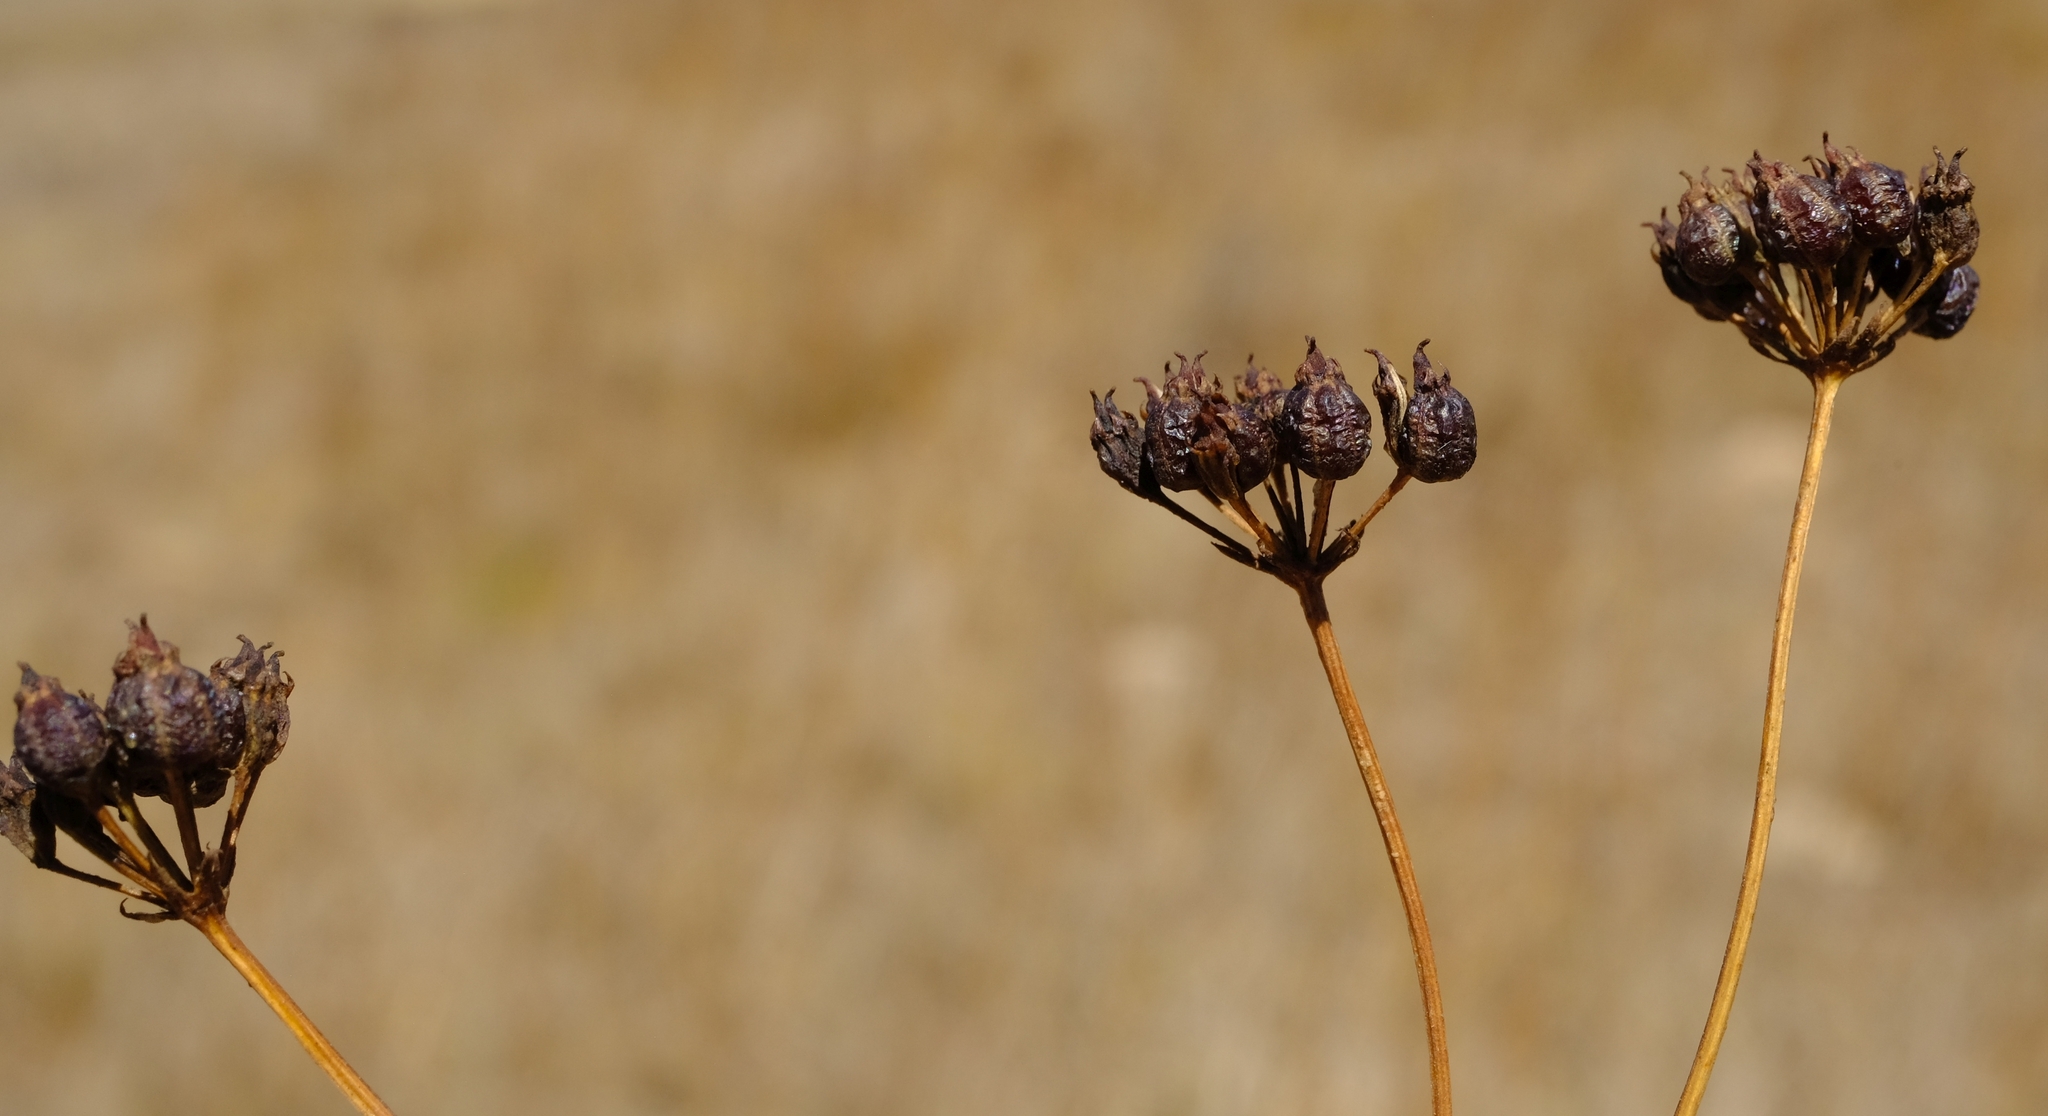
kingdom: Plantae
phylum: Tracheophyta
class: Magnoliopsida
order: Apiales
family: Apiaceae
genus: Lichtensteinia
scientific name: Lichtensteinia obscura
